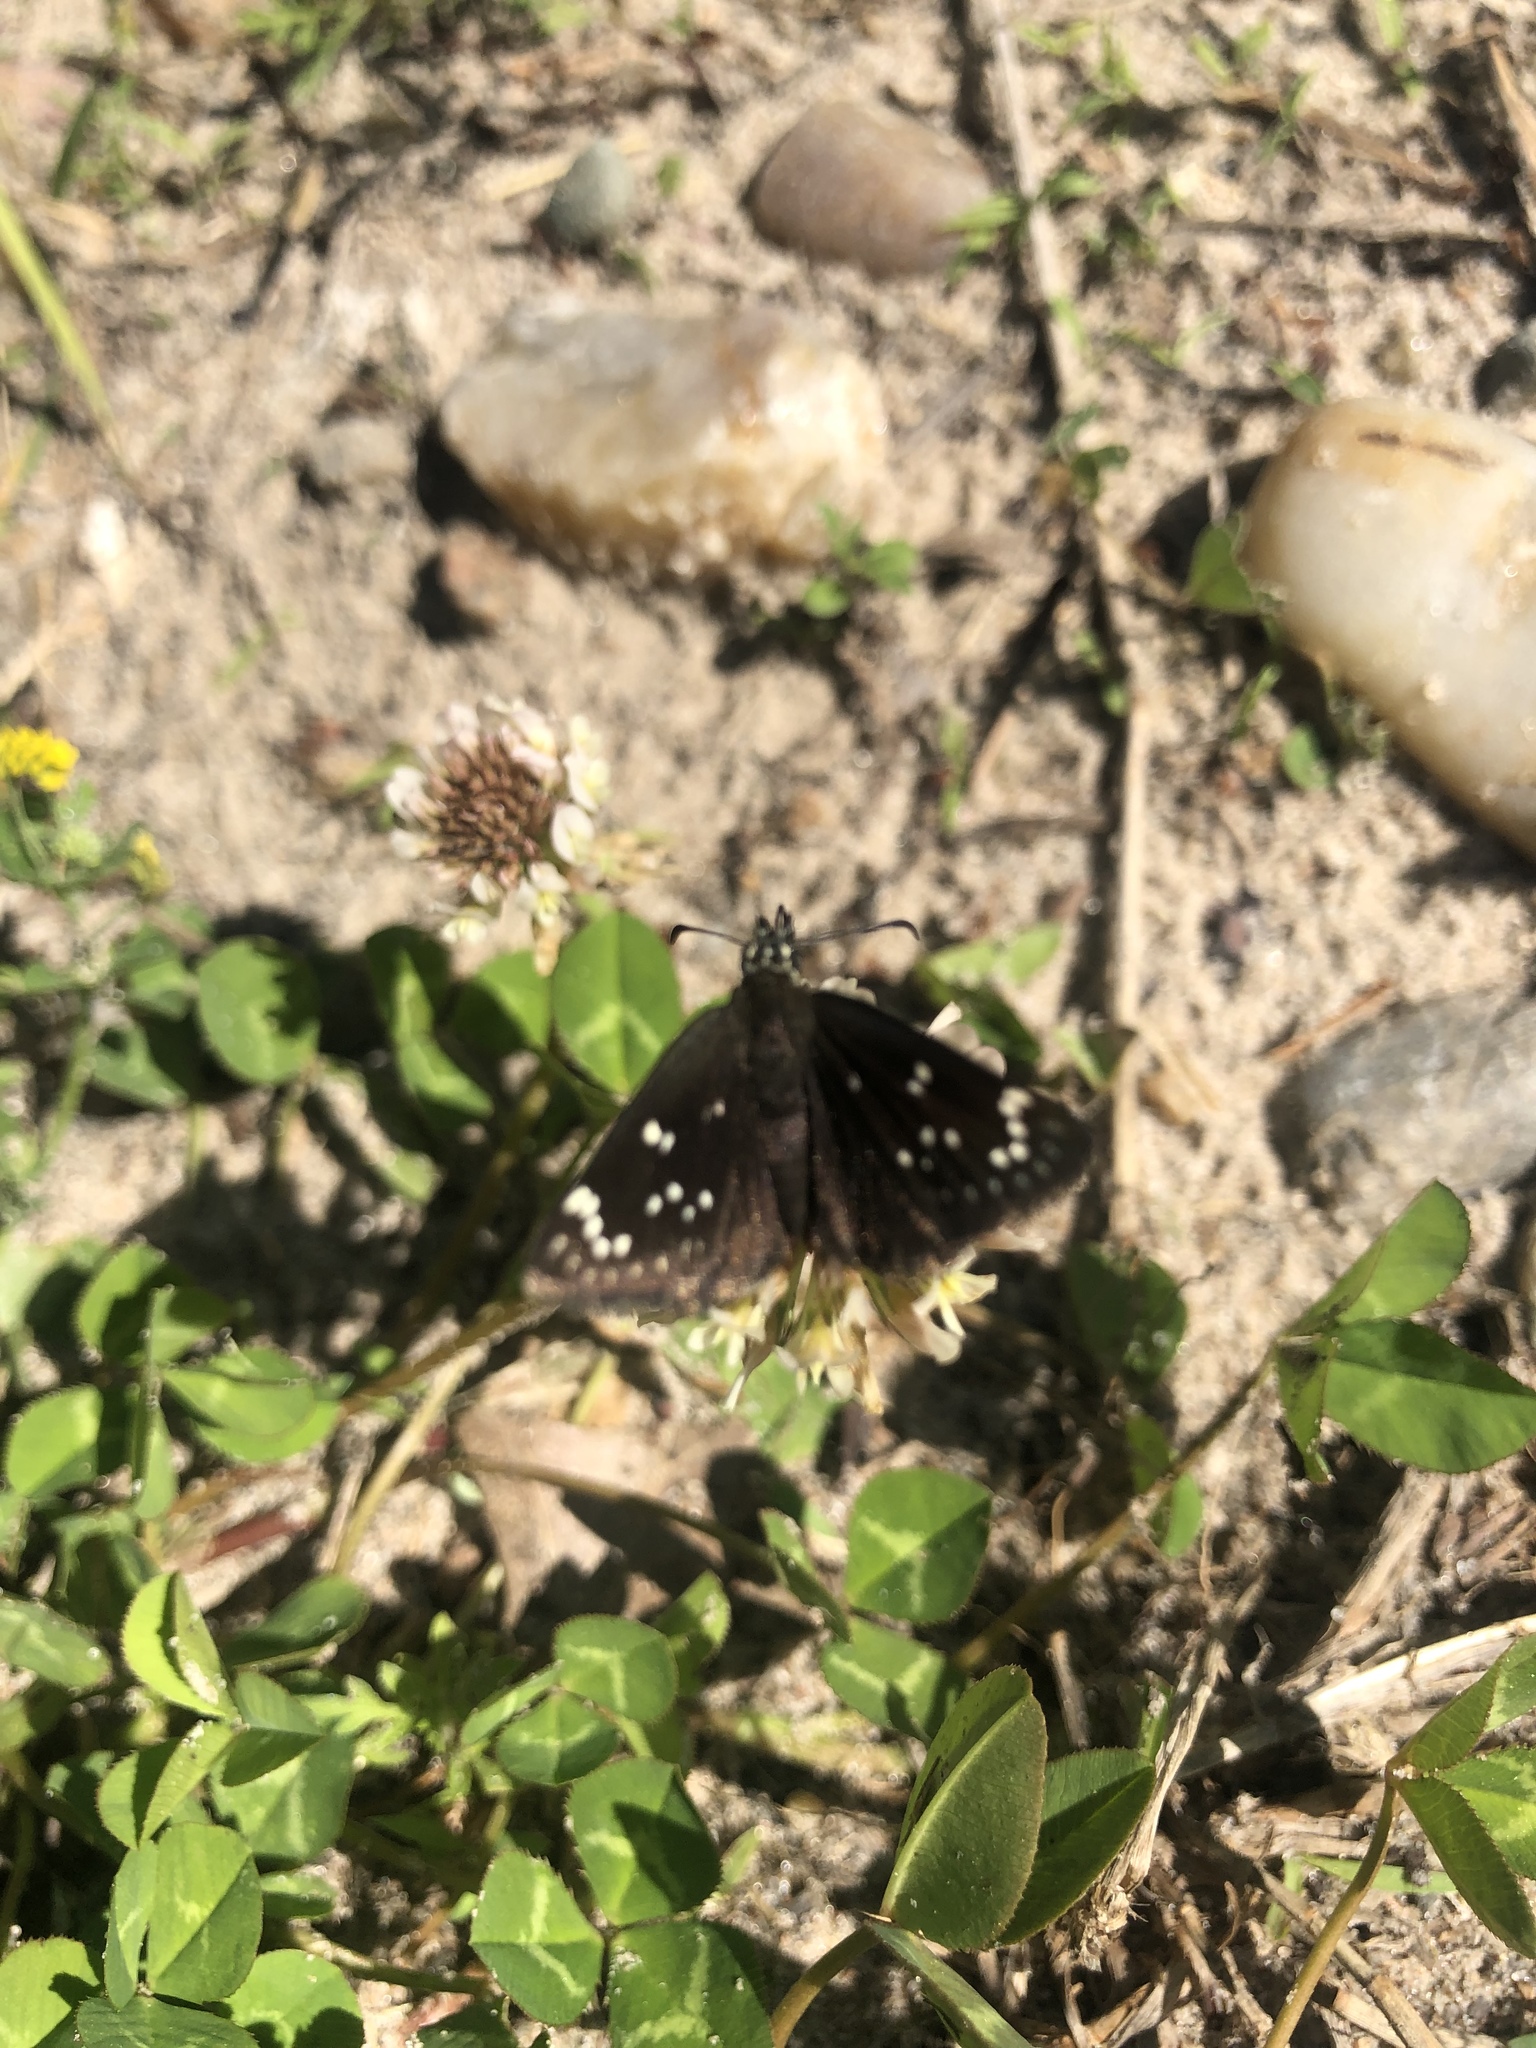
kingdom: Animalia
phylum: Arthropoda
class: Insecta
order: Lepidoptera
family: Hesperiidae
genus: Pholisora
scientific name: Pholisora catullus
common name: Common sootywing
